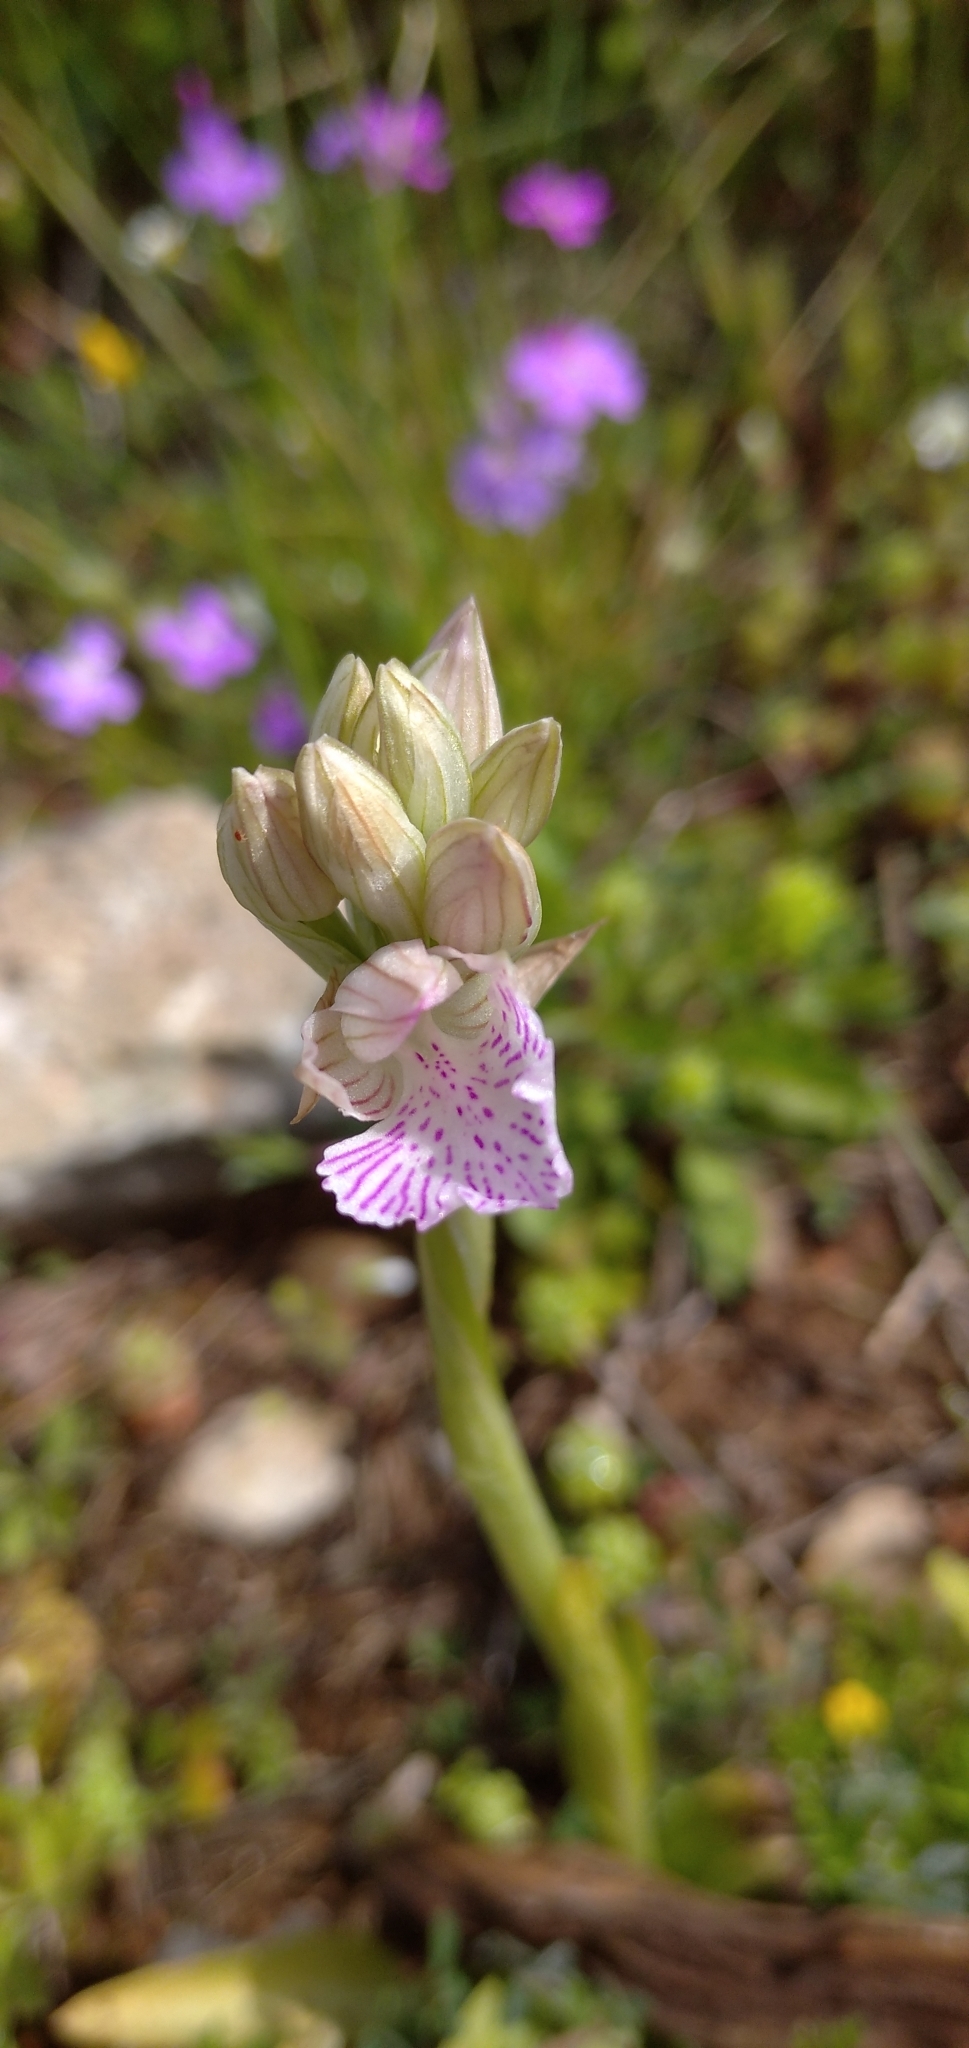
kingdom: Plantae
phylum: Tracheophyta
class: Liliopsida
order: Asparagales
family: Orchidaceae
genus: Anacamptis
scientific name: Anacamptis papilionacea
